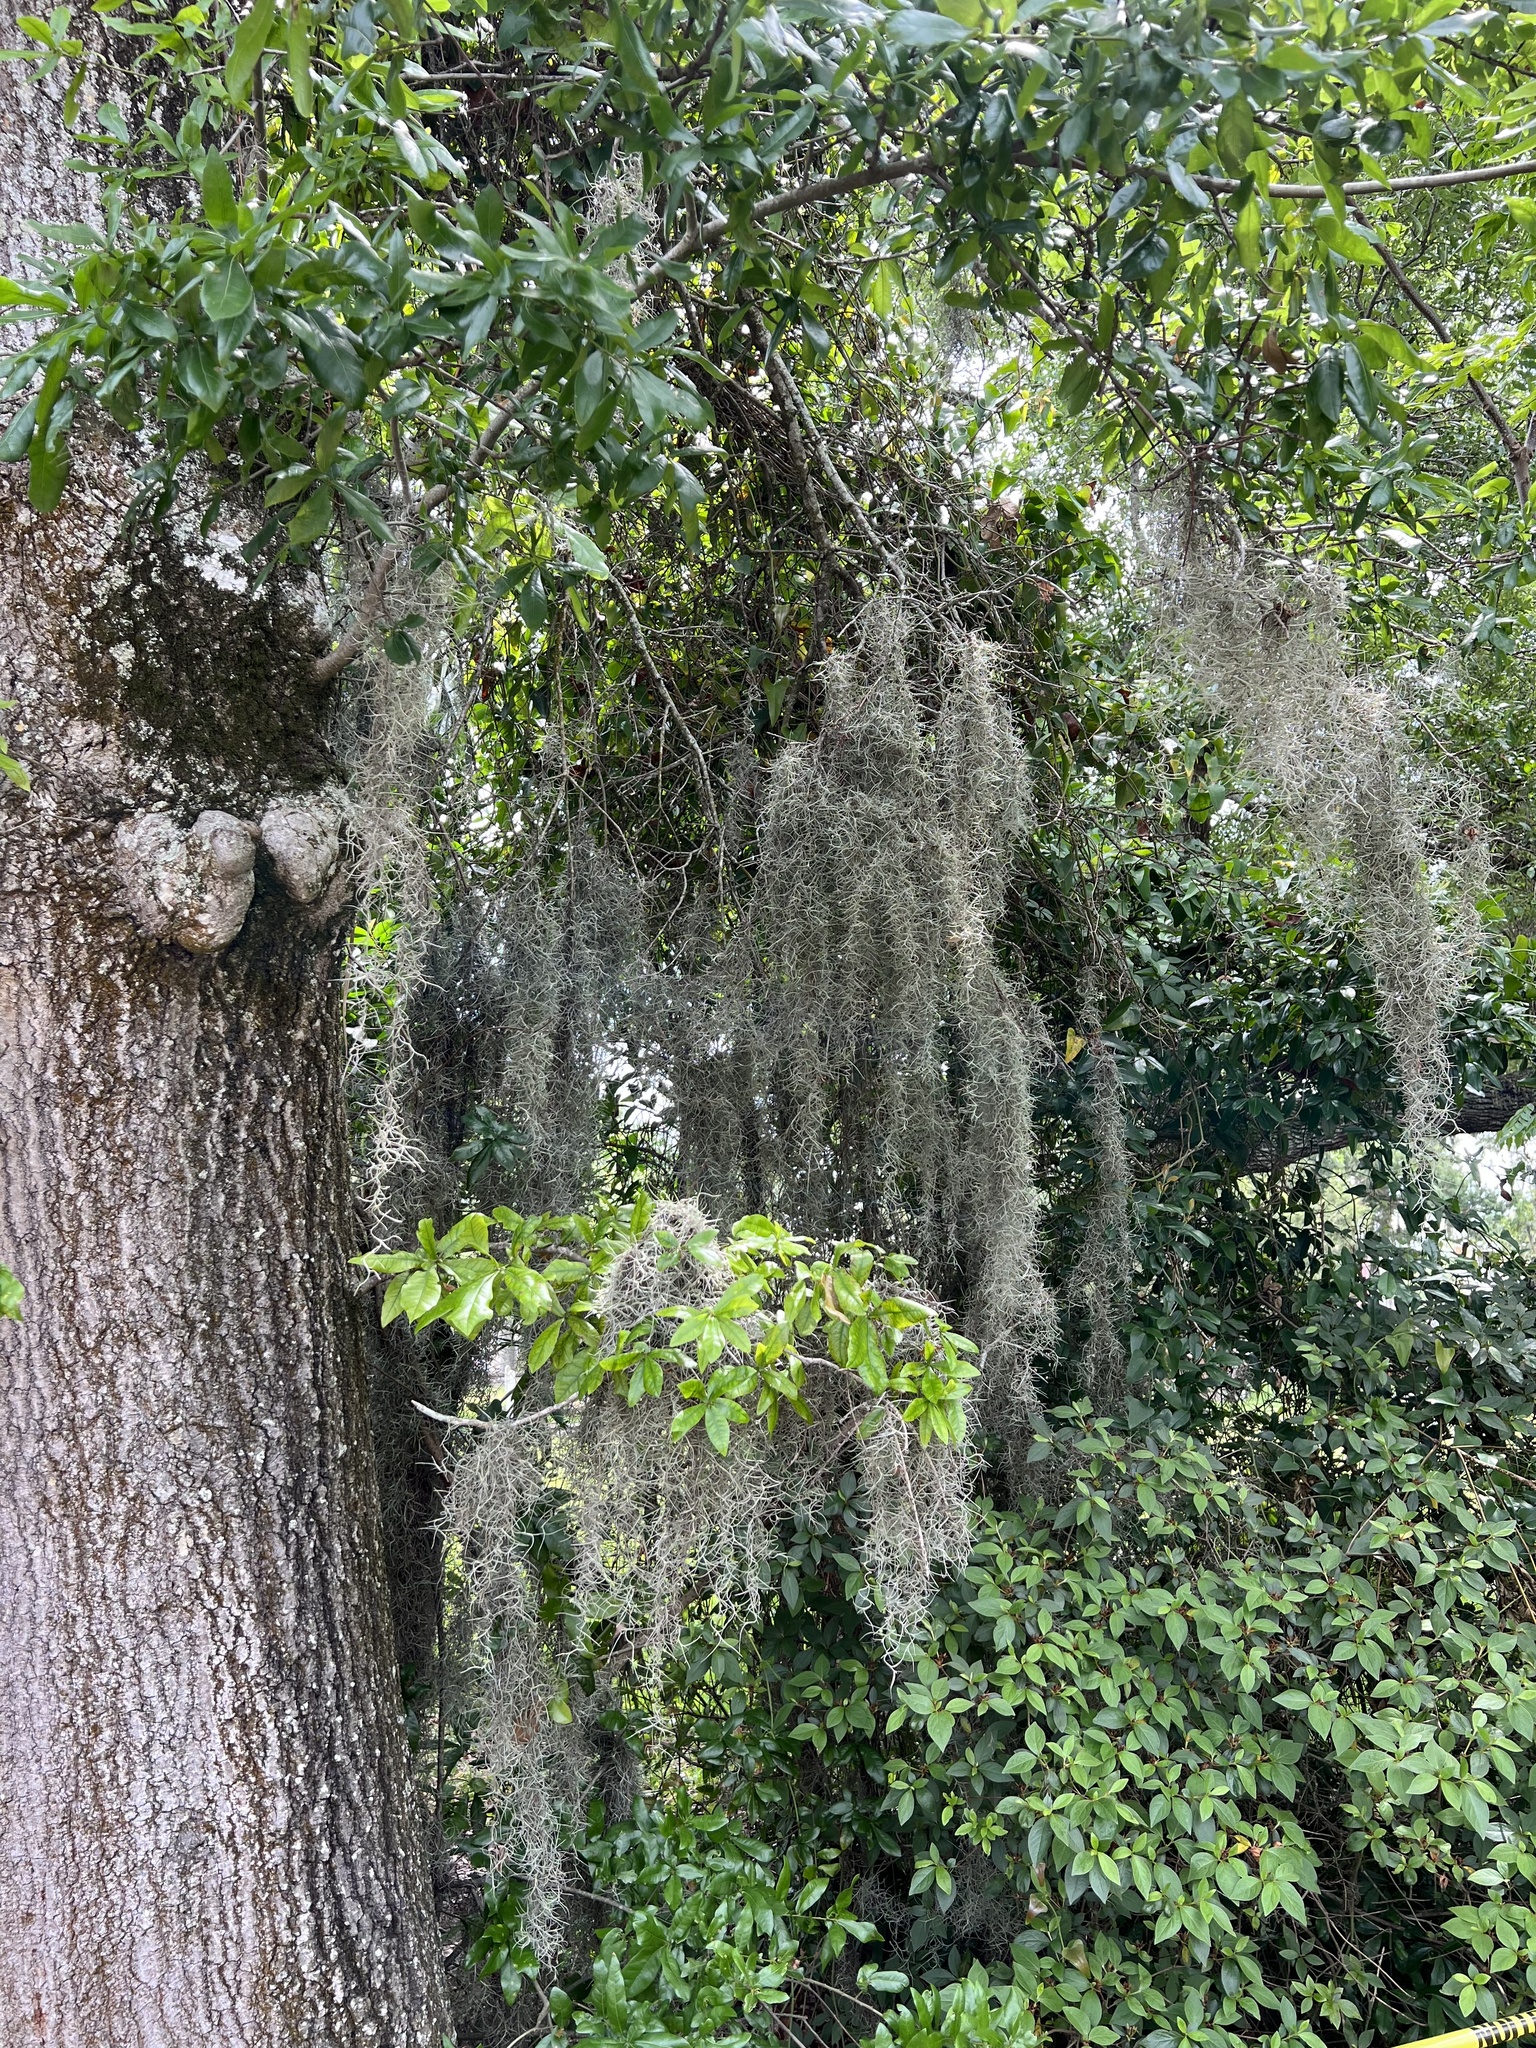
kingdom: Plantae
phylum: Tracheophyta
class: Liliopsida
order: Poales
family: Bromeliaceae
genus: Tillandsia
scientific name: Tillandsia usneoides
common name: Spanish moss
